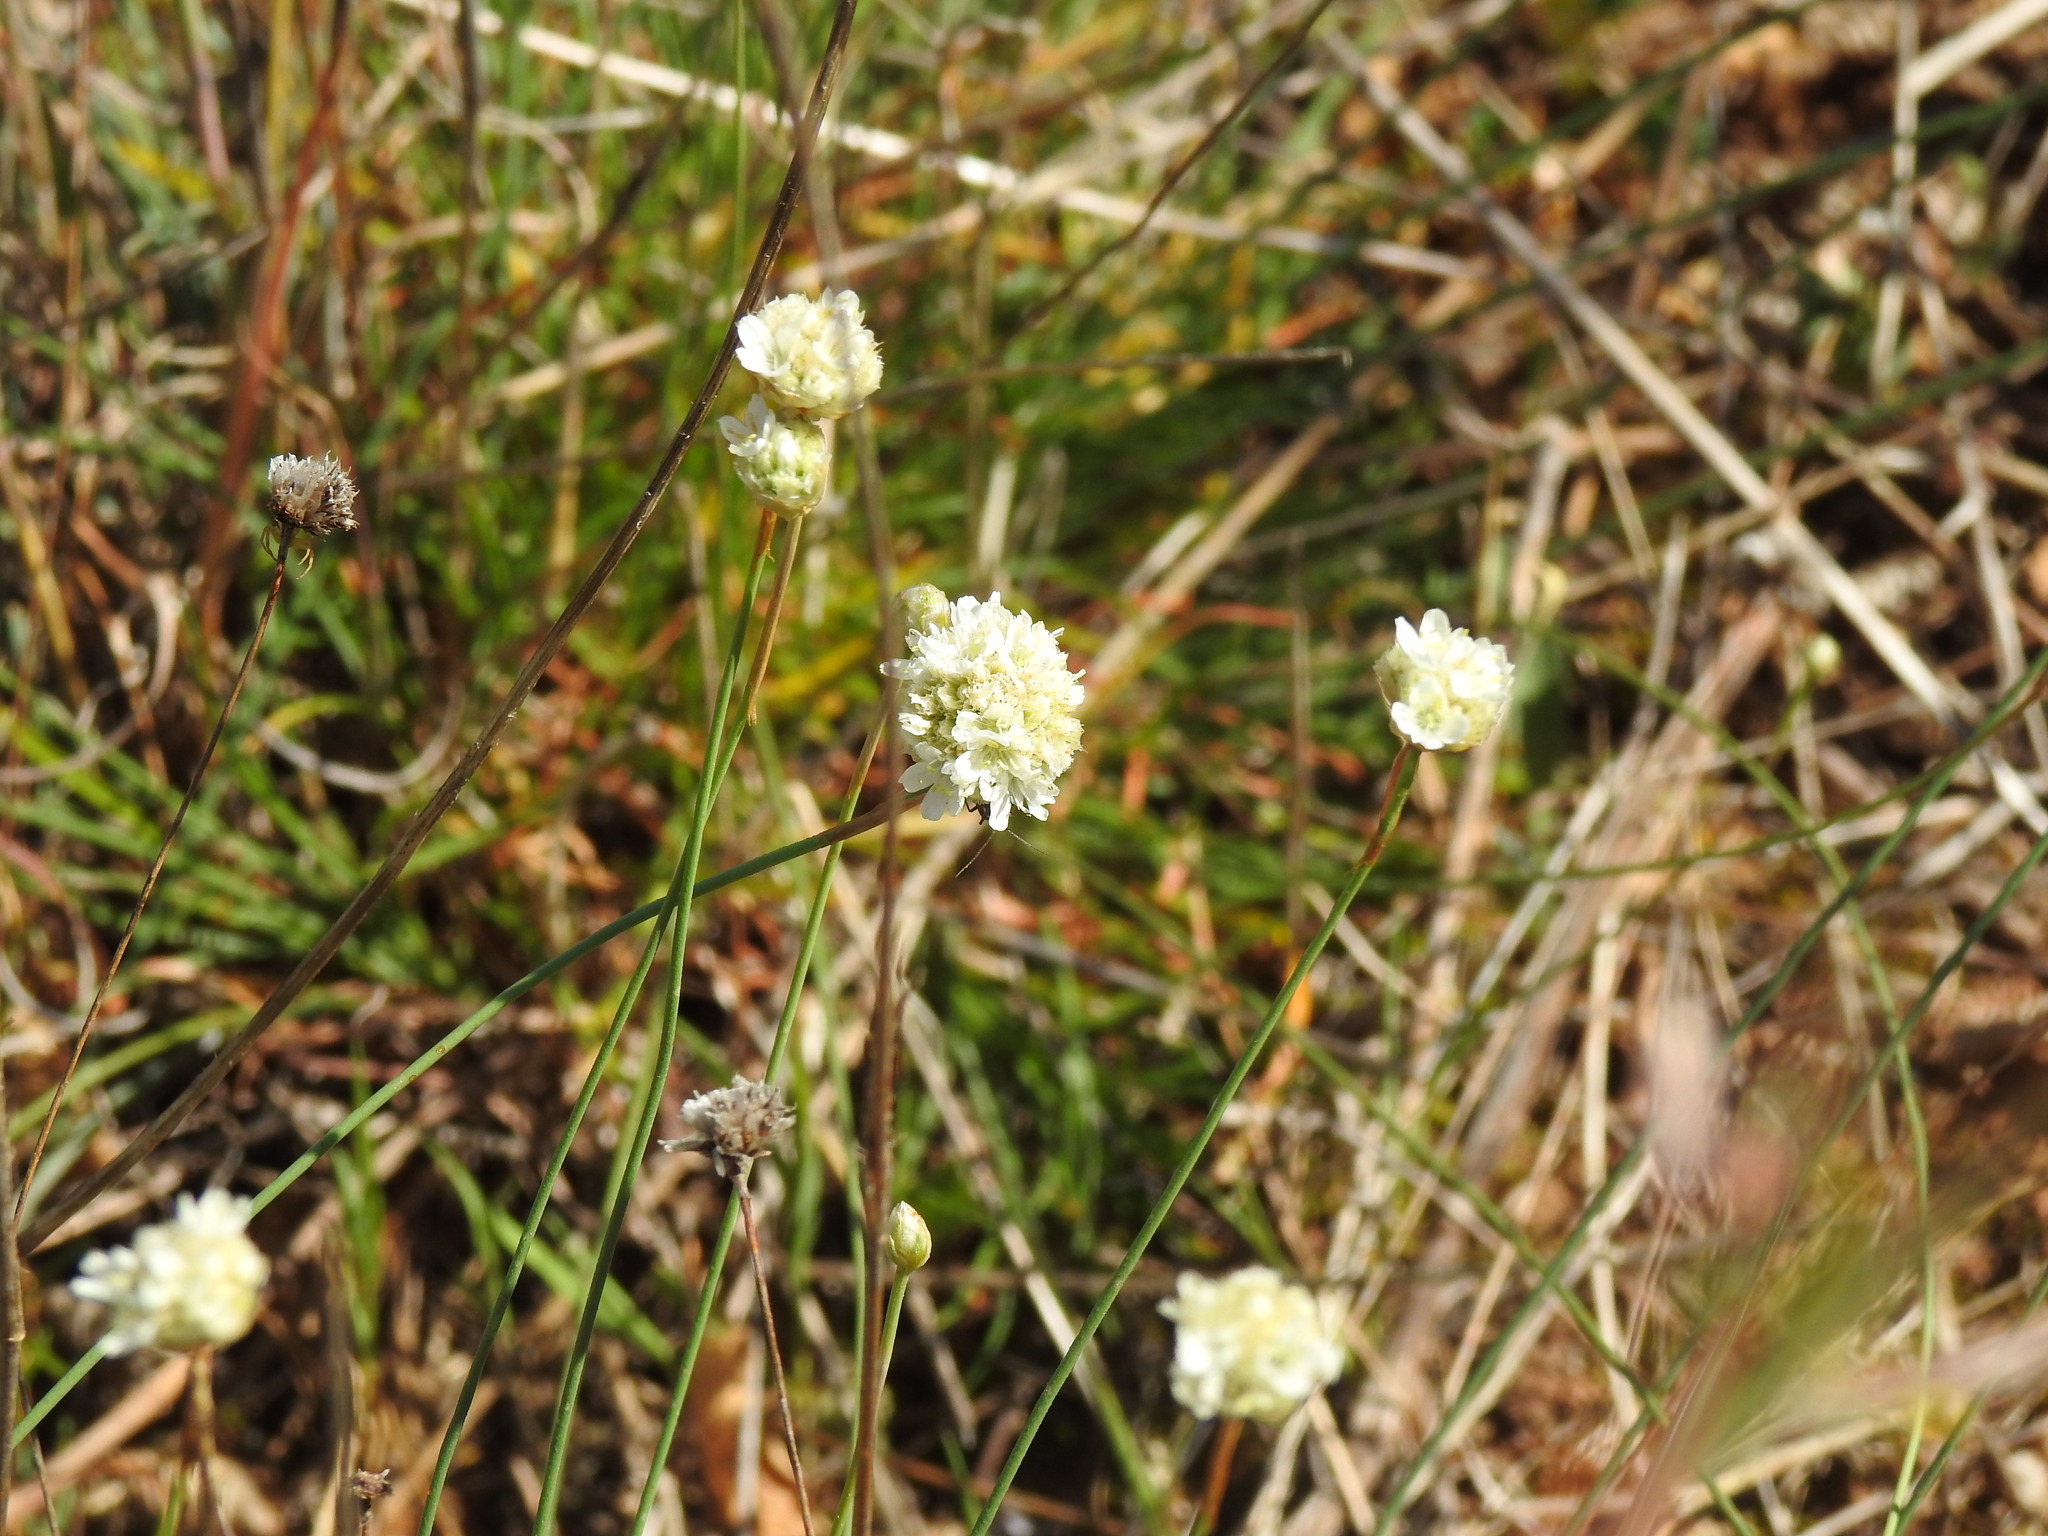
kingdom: Plantae
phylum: Tracheophyta
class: Magnoliopsida
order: Caryophyllales
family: Plumbaginaceae
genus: Armeria
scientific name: Armeria linkiana
